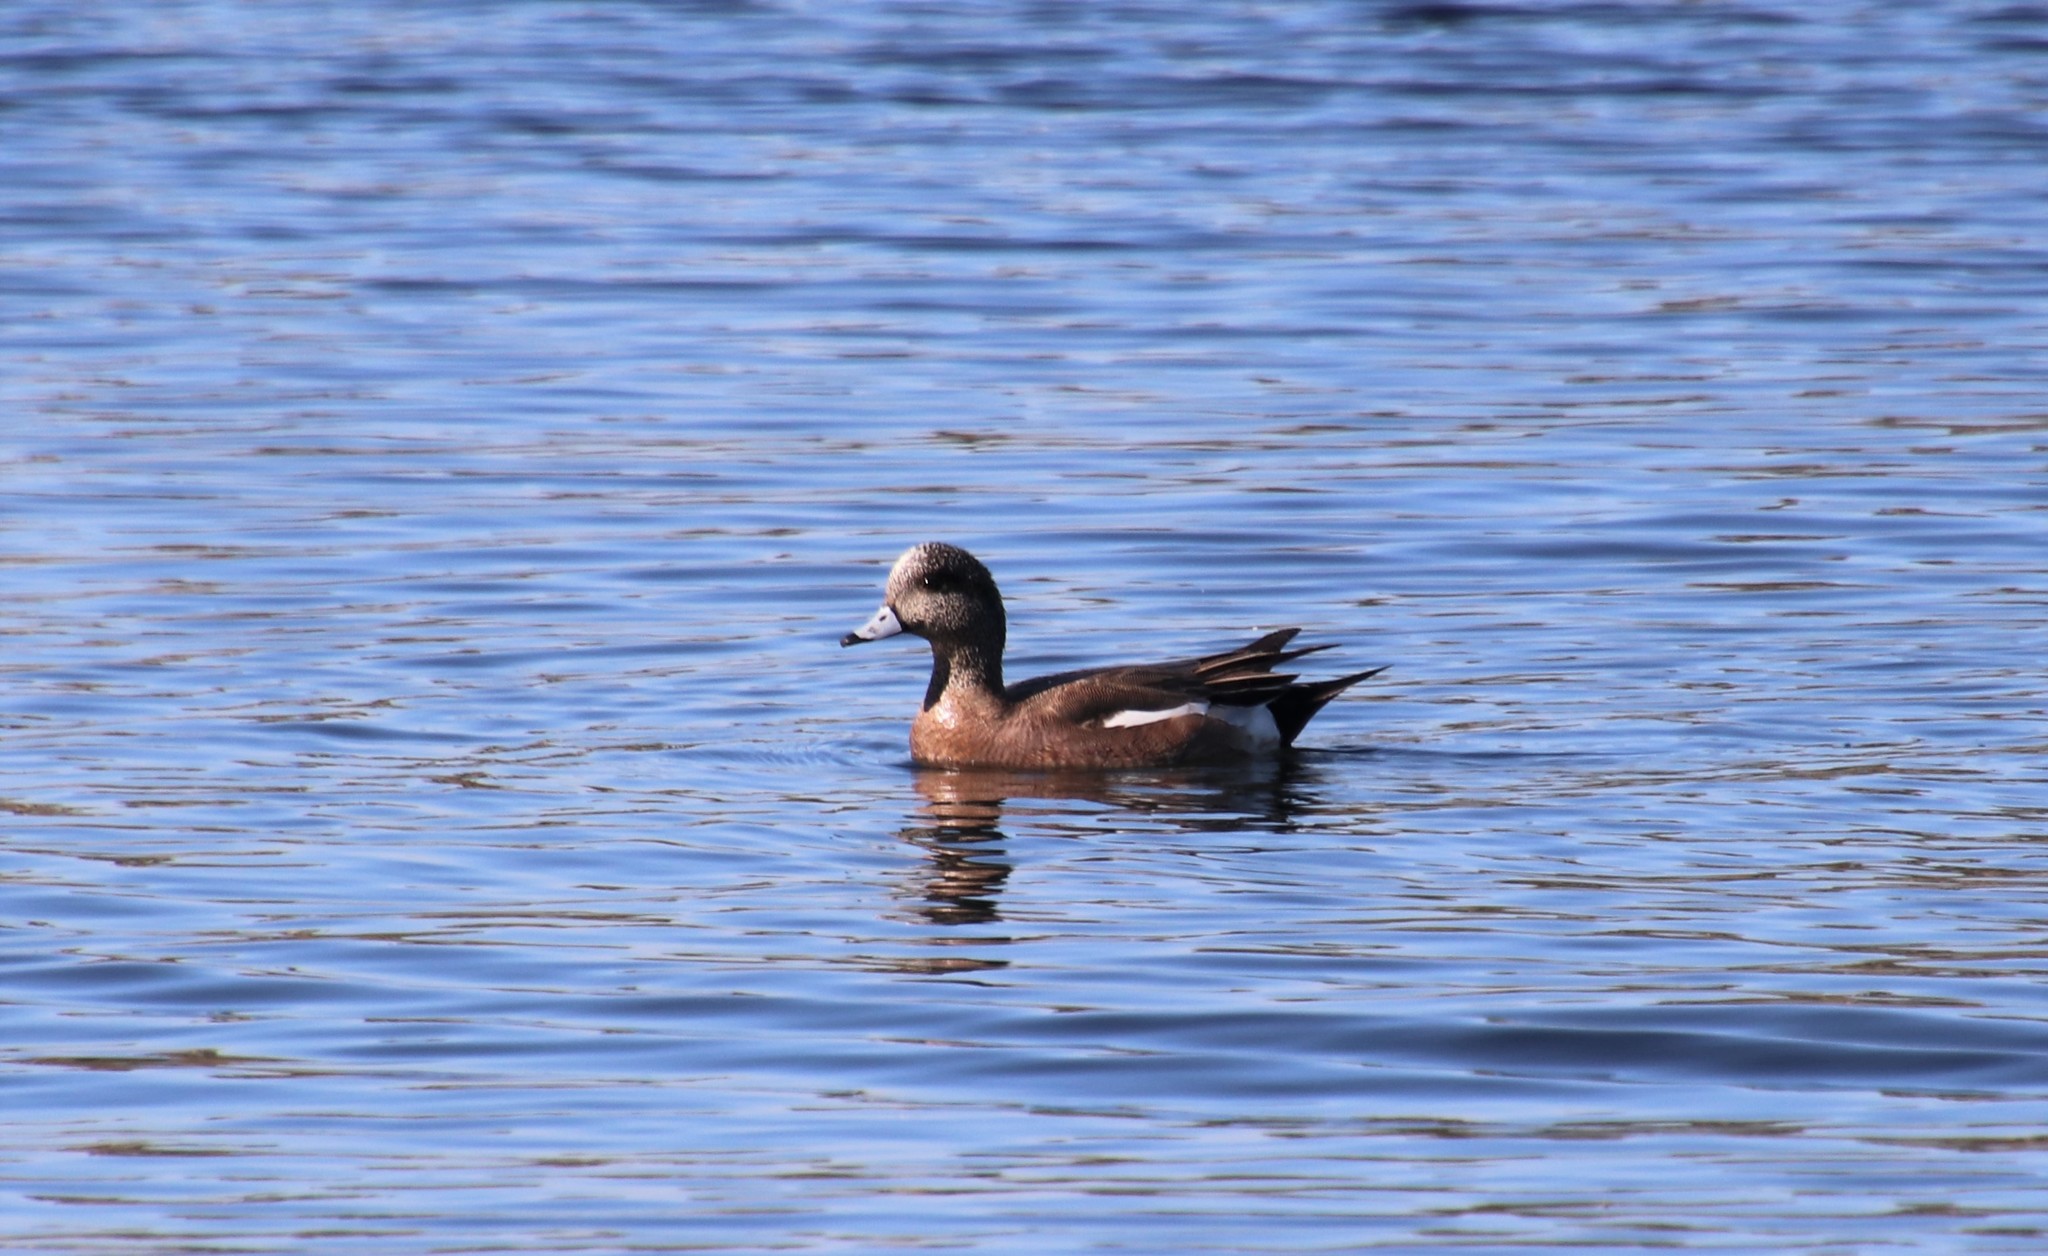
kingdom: Animalia
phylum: Chordata
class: Aves
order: Anseriformes
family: Anatidae
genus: Mareca
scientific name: Mareca americana
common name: American wigeon
